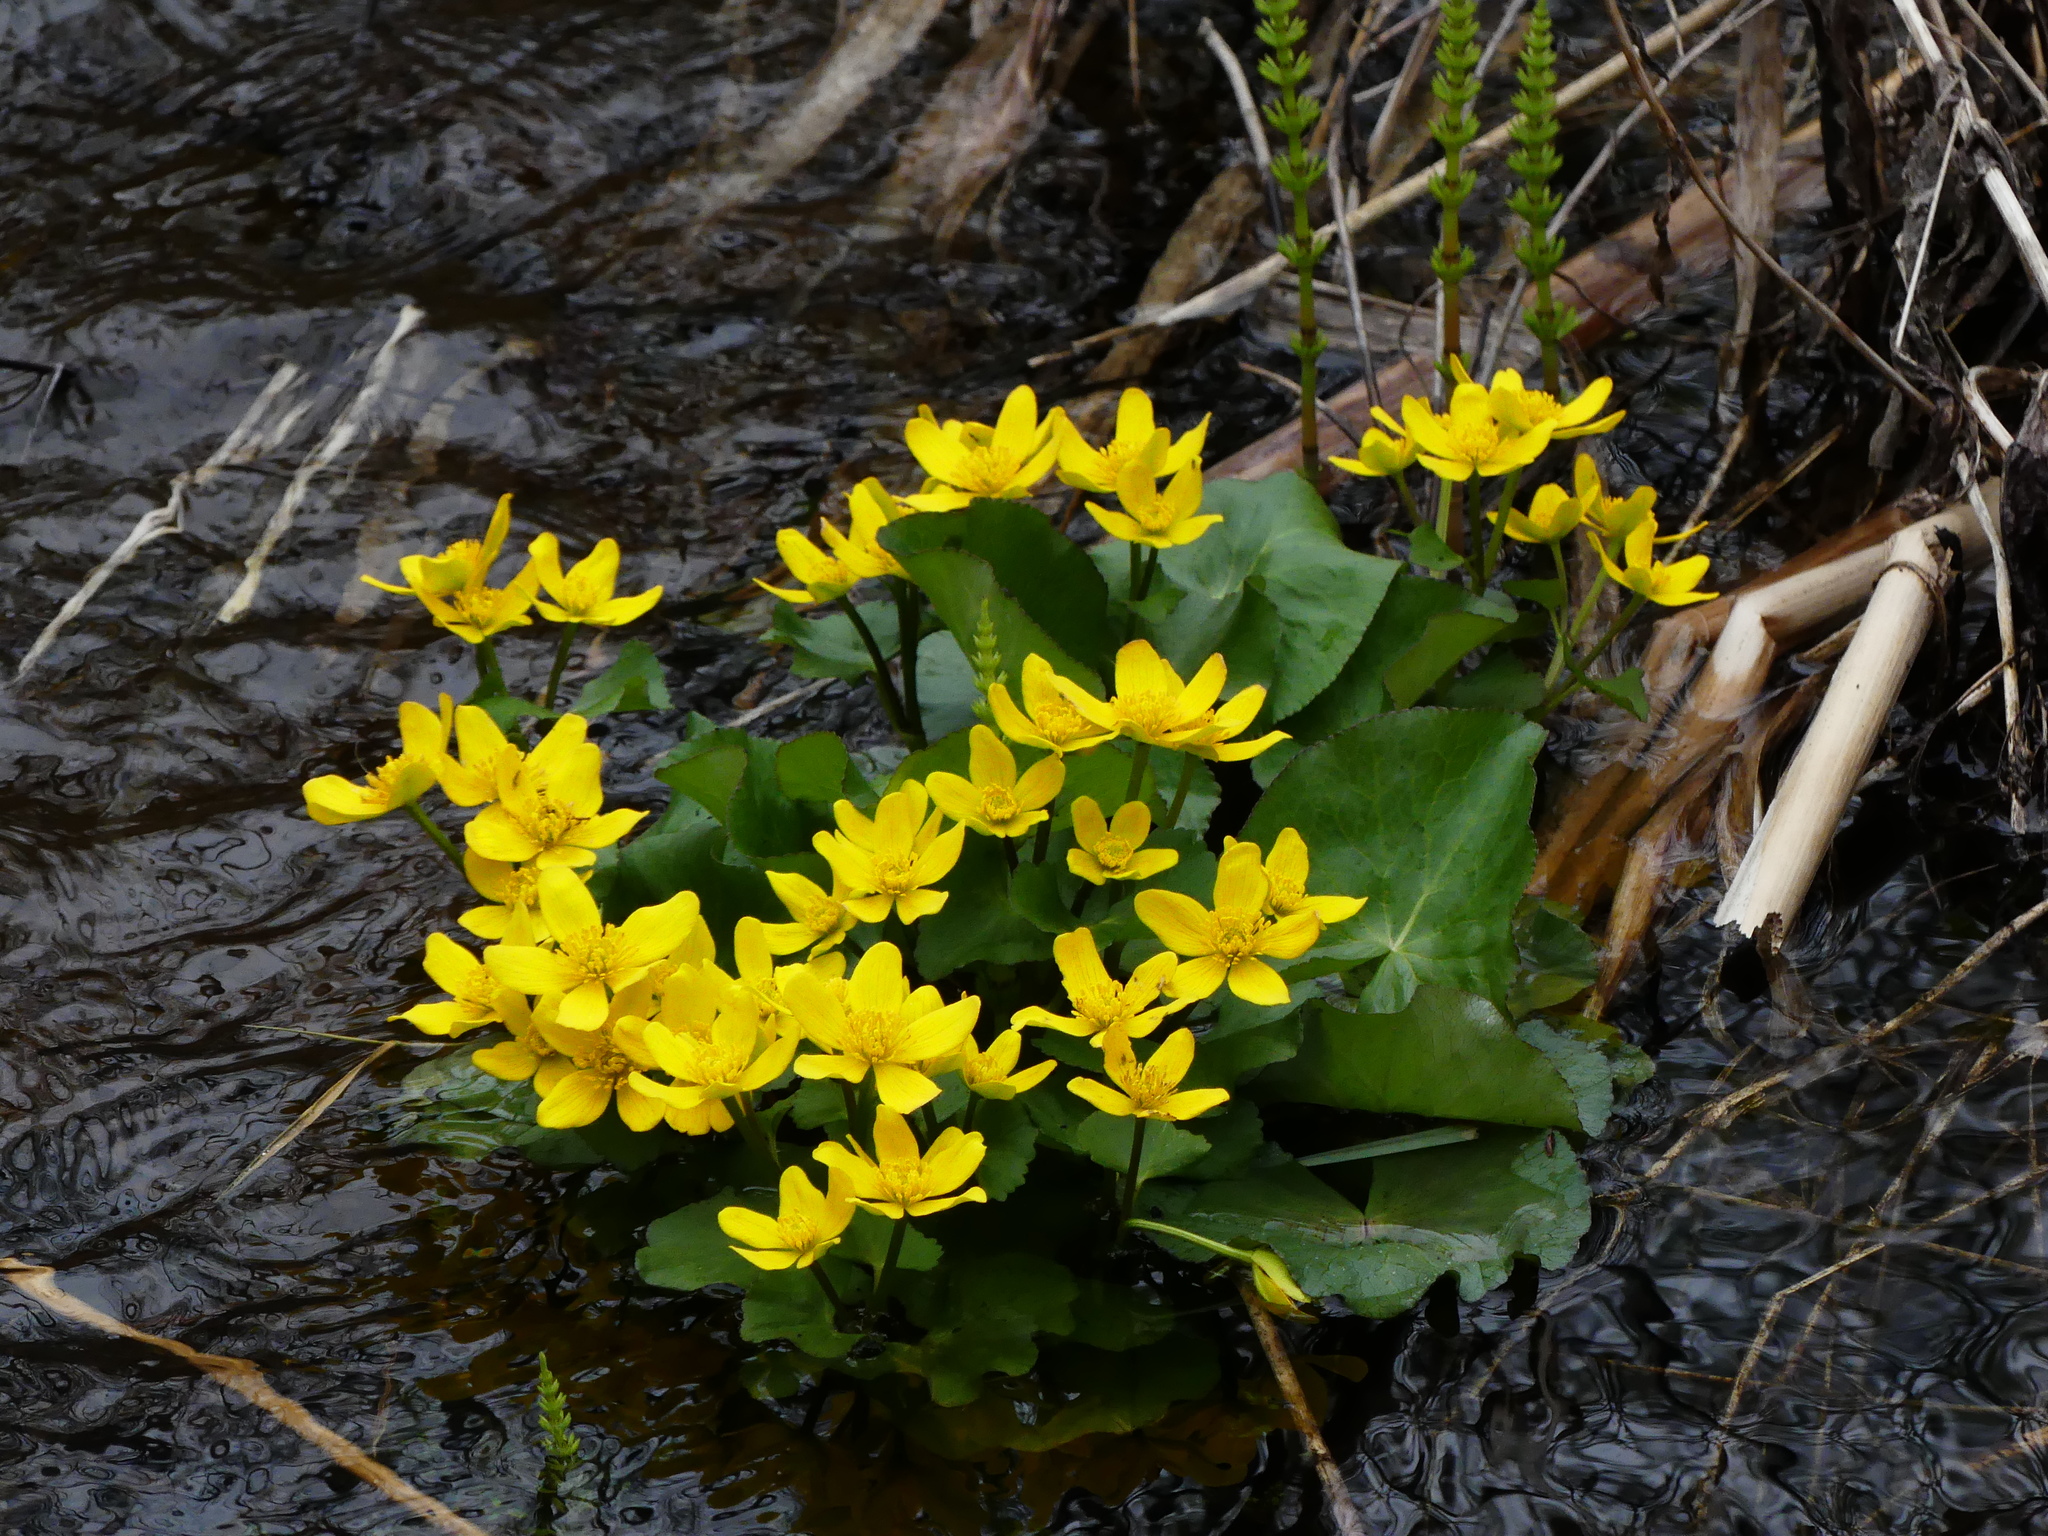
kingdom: Plantae
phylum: Tracheophyta
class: Magnoliopsida
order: Ranunculales
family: Ranunculaceae
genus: Caltha
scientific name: Caltha palustris
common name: Marsh marigold
